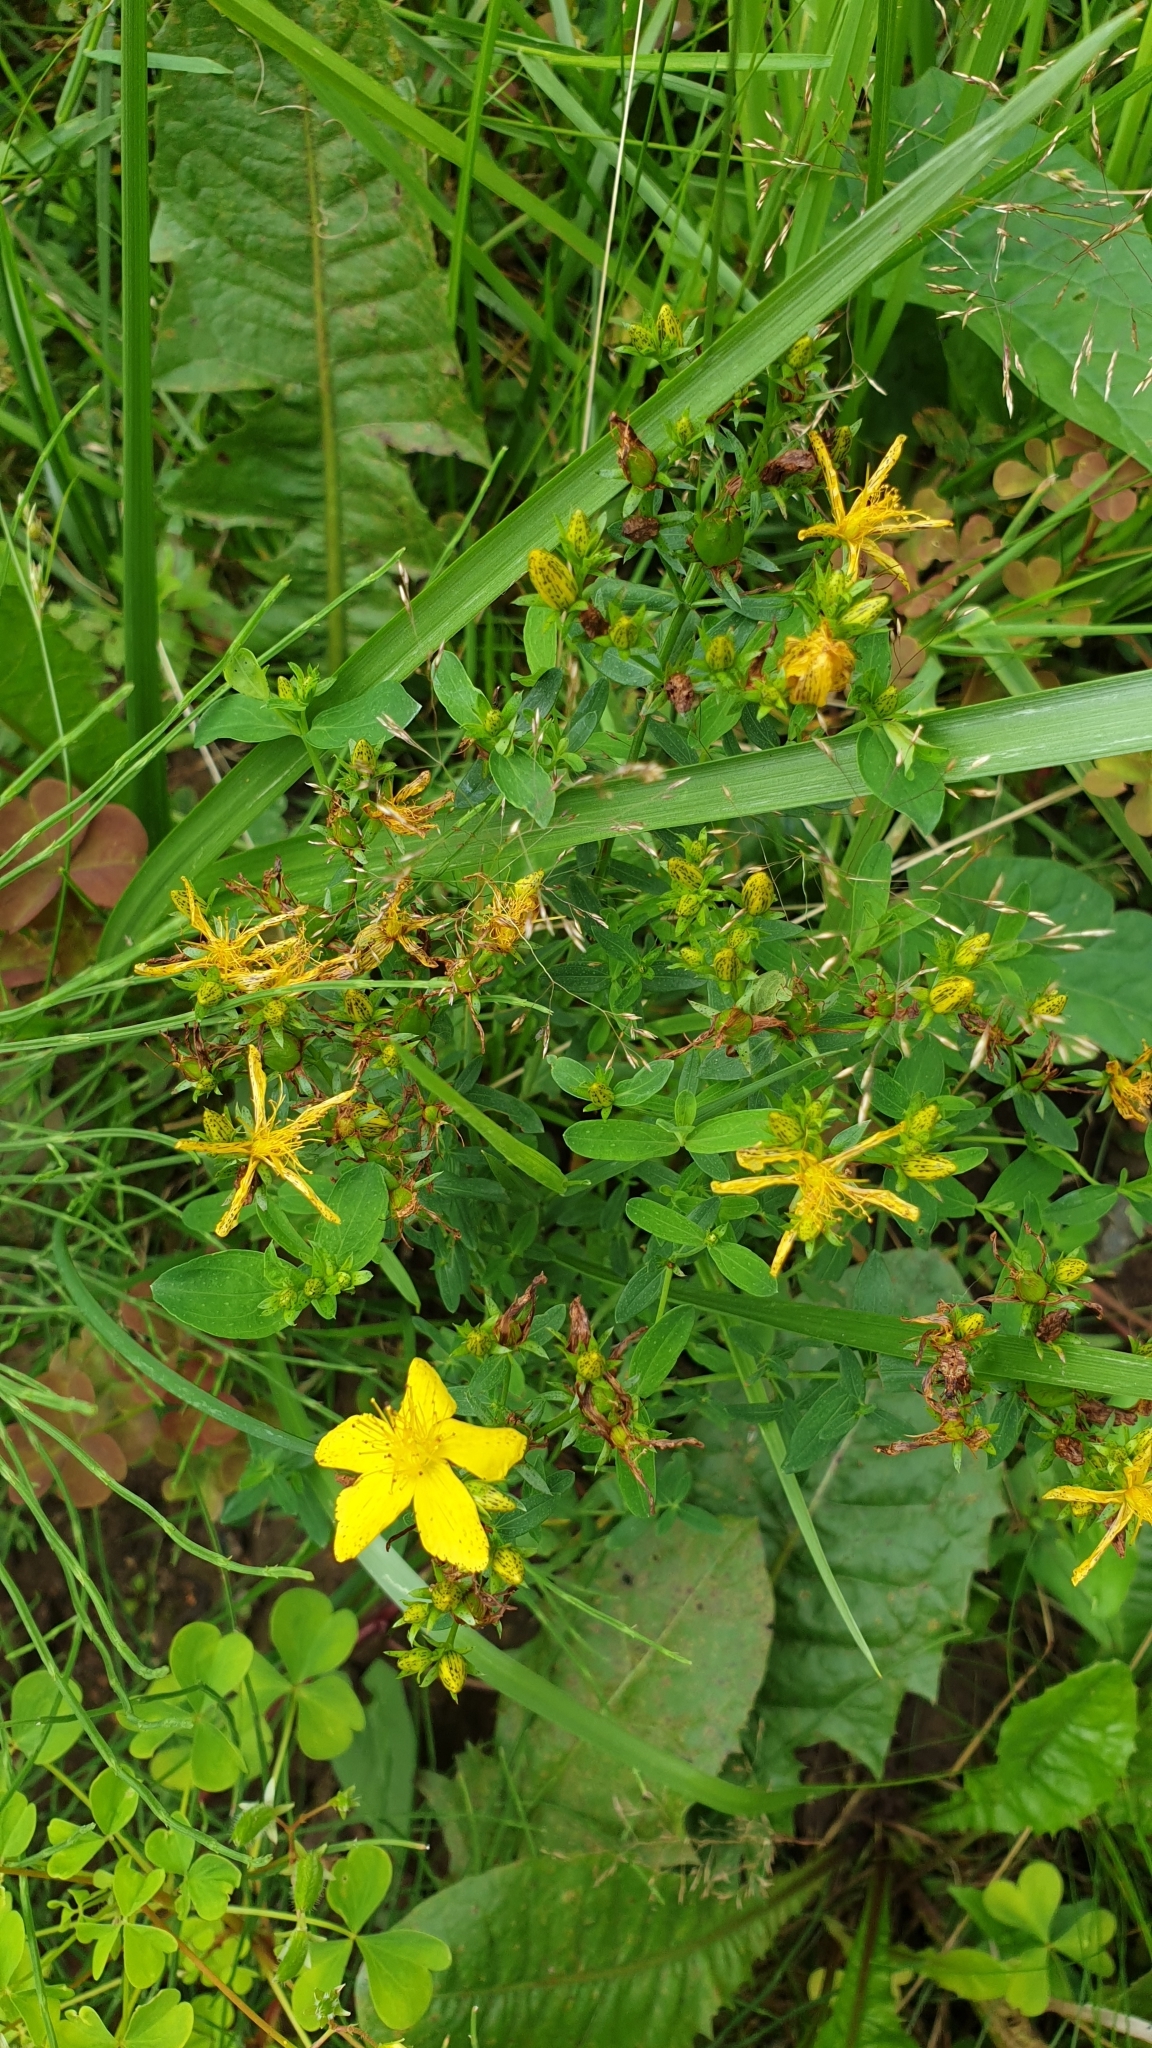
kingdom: Plantae
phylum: Tracheophyta
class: Magnoliopsida
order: Malpighiales
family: Hypericaceae
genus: Hypericum
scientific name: Hypericum perforatum
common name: Common st. johnswort
